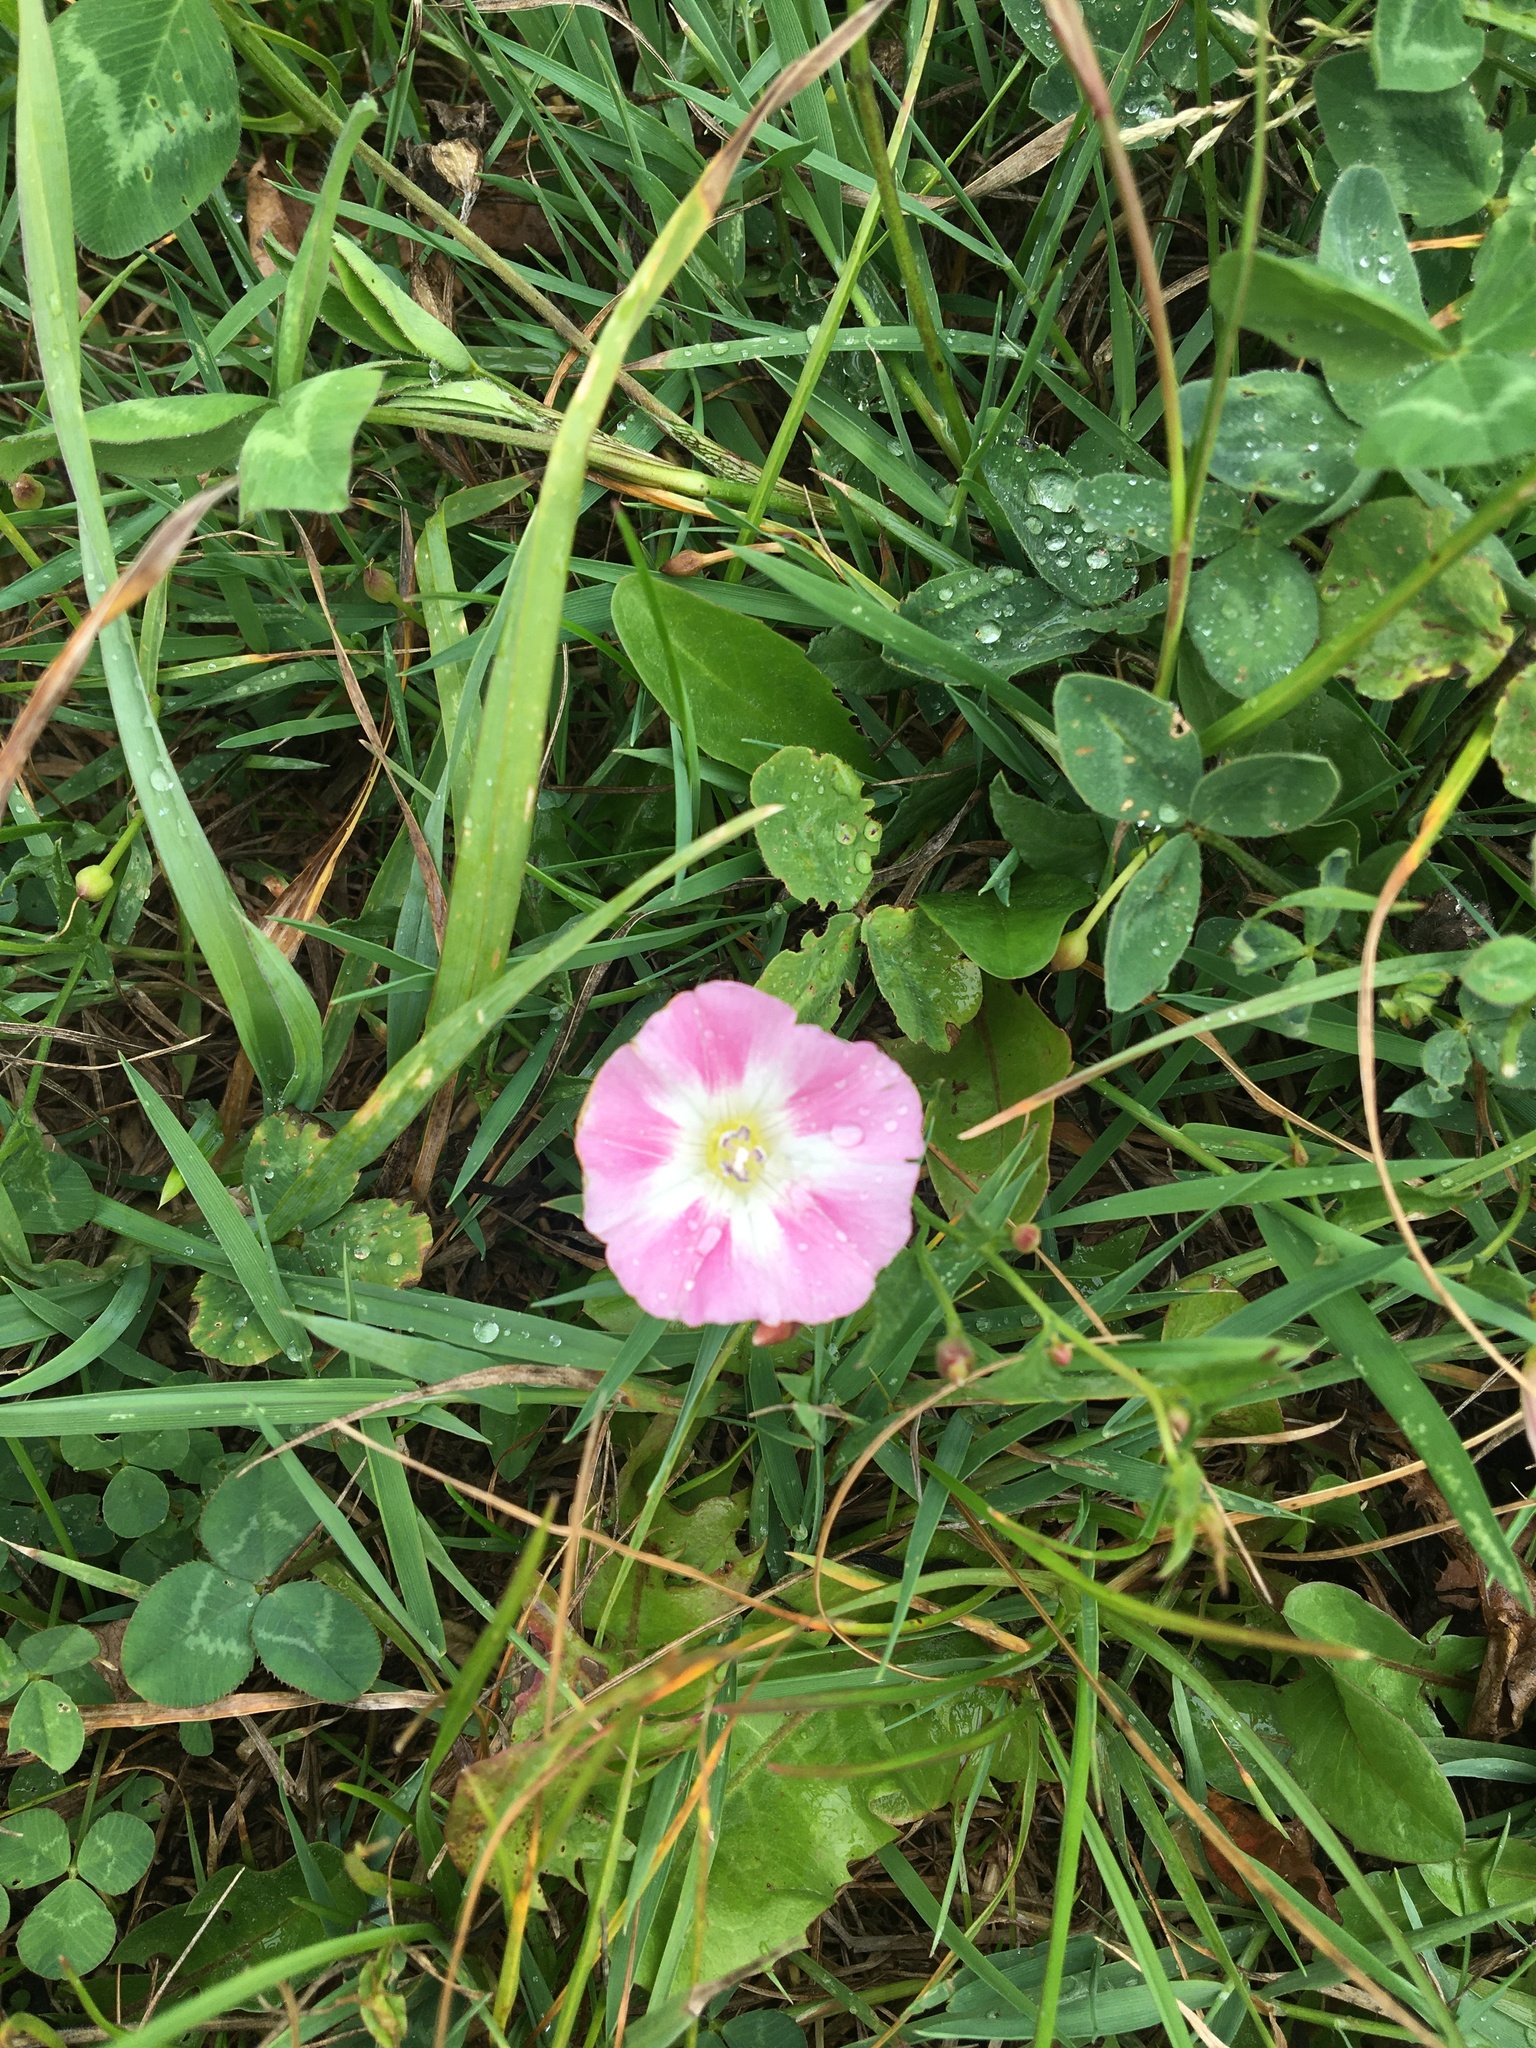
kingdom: Plantae
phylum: Tracheophyta
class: Magnoliopsida
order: Solanales
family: Convolvulaceae
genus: Convolvulus
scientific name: Convolvulus arvensis
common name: Field bindweed
